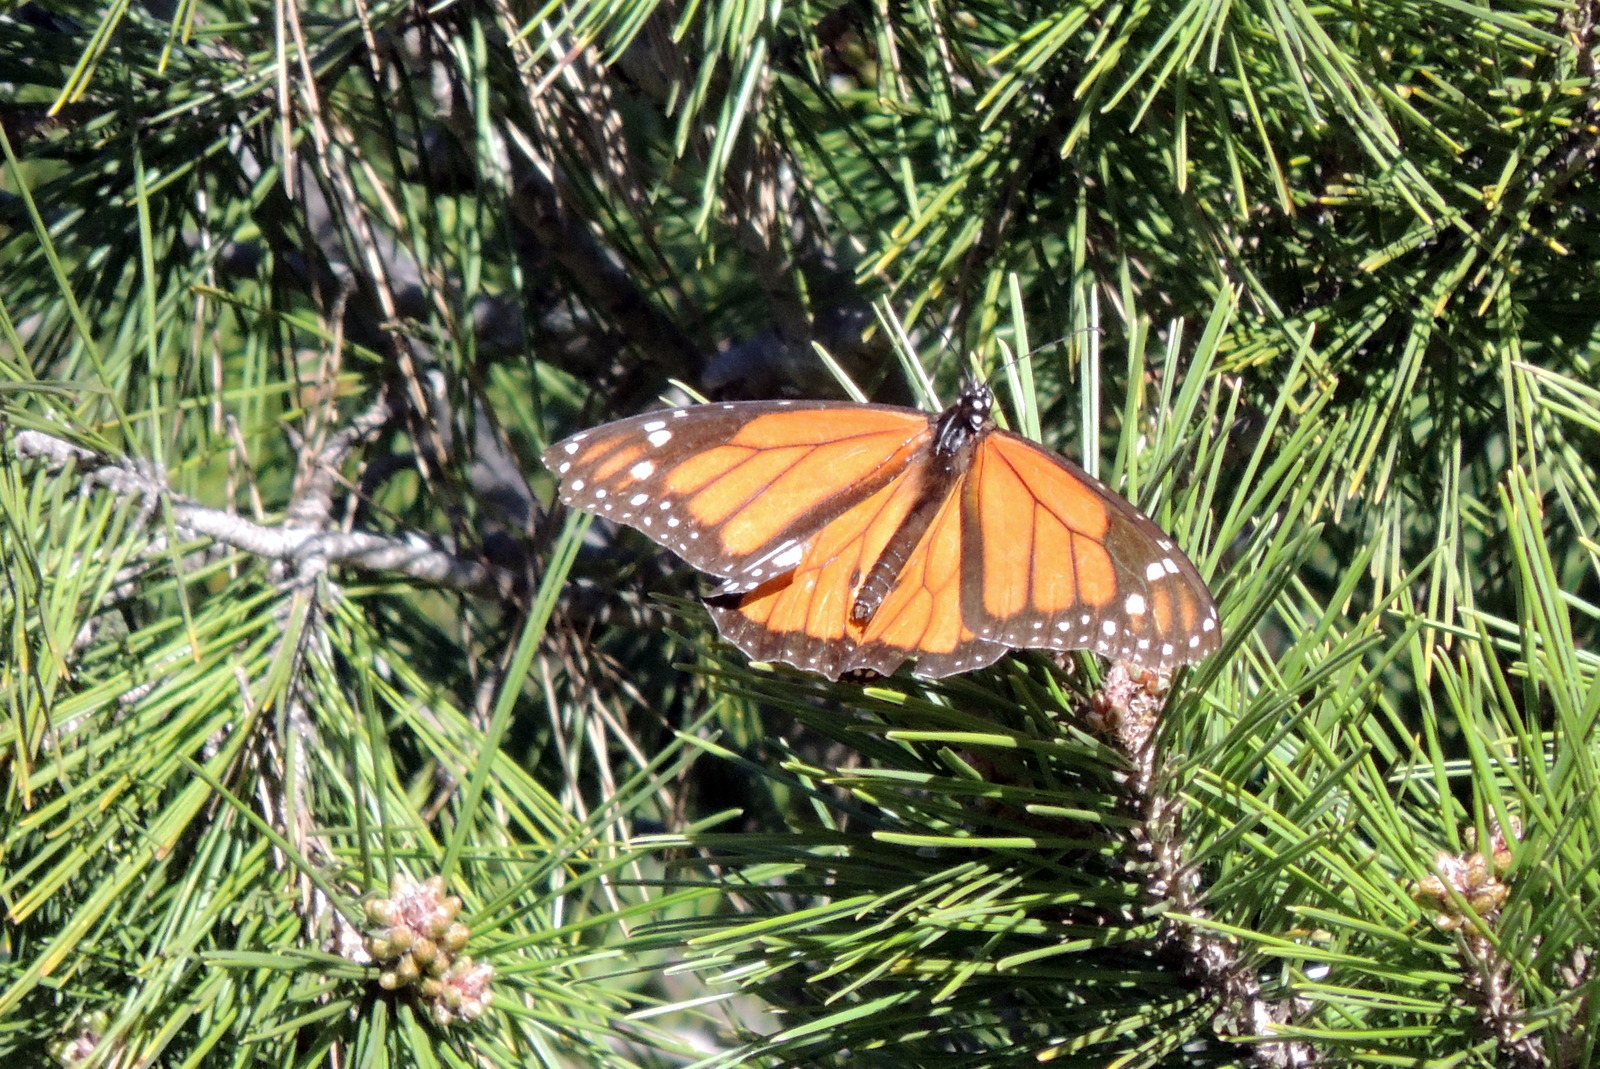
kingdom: Animalia
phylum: Arthropoda
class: Insecta
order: Lepidoptera
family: Nymphalidae
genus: Danaus
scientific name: Danaus plexippus
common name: Monarch
